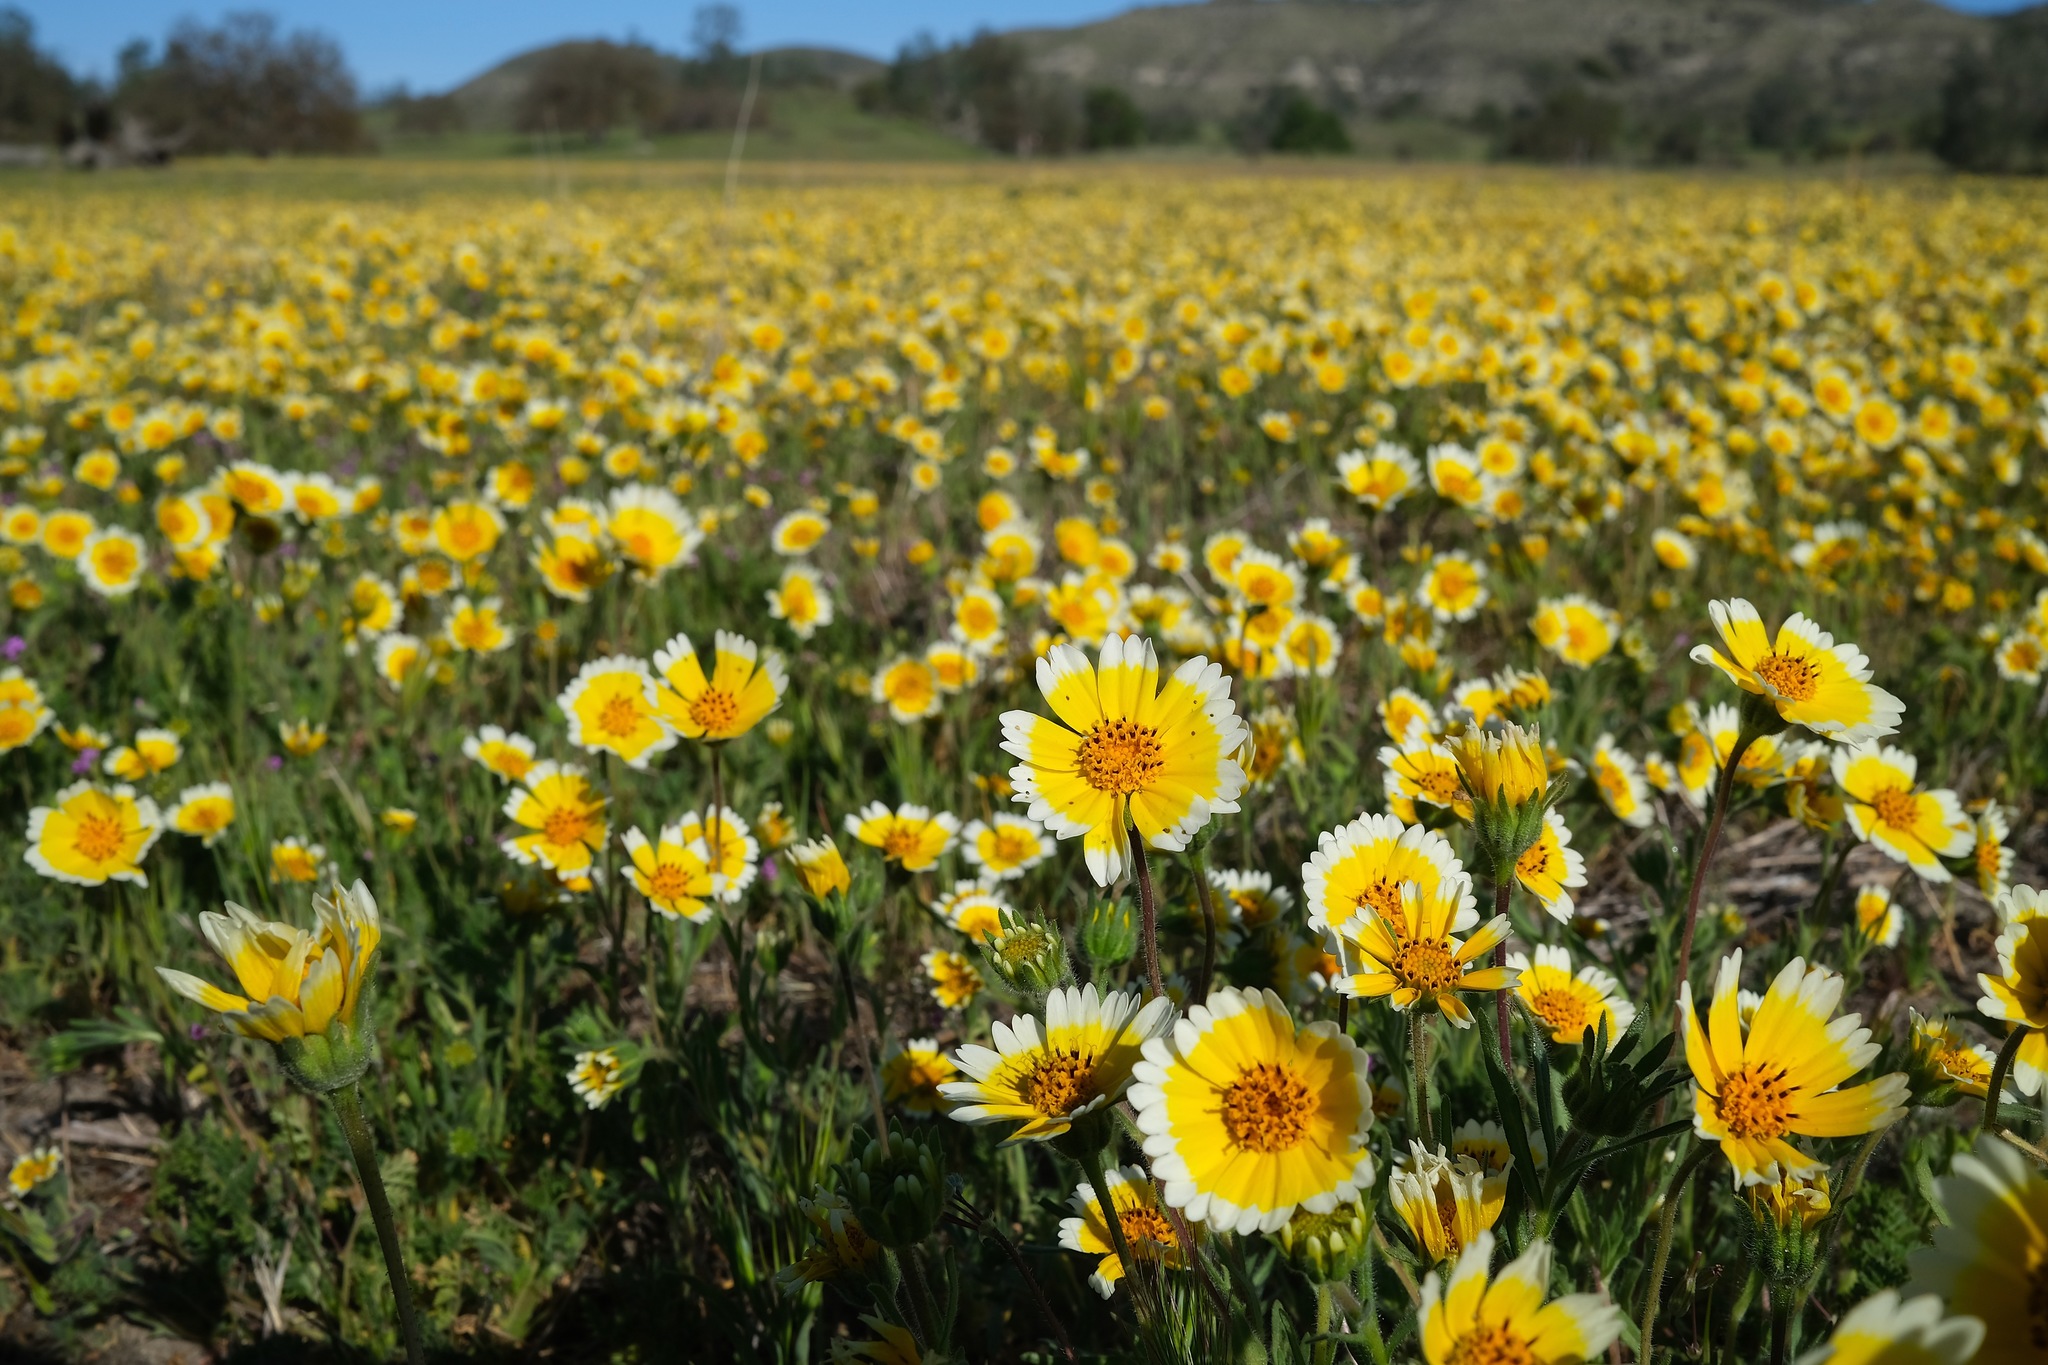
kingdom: Plantae
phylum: Tracheophyta
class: Magnoliopsida
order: Asterales
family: Asteraceae
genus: Layia
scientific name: Layia platyglossa
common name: Tidy-tips
